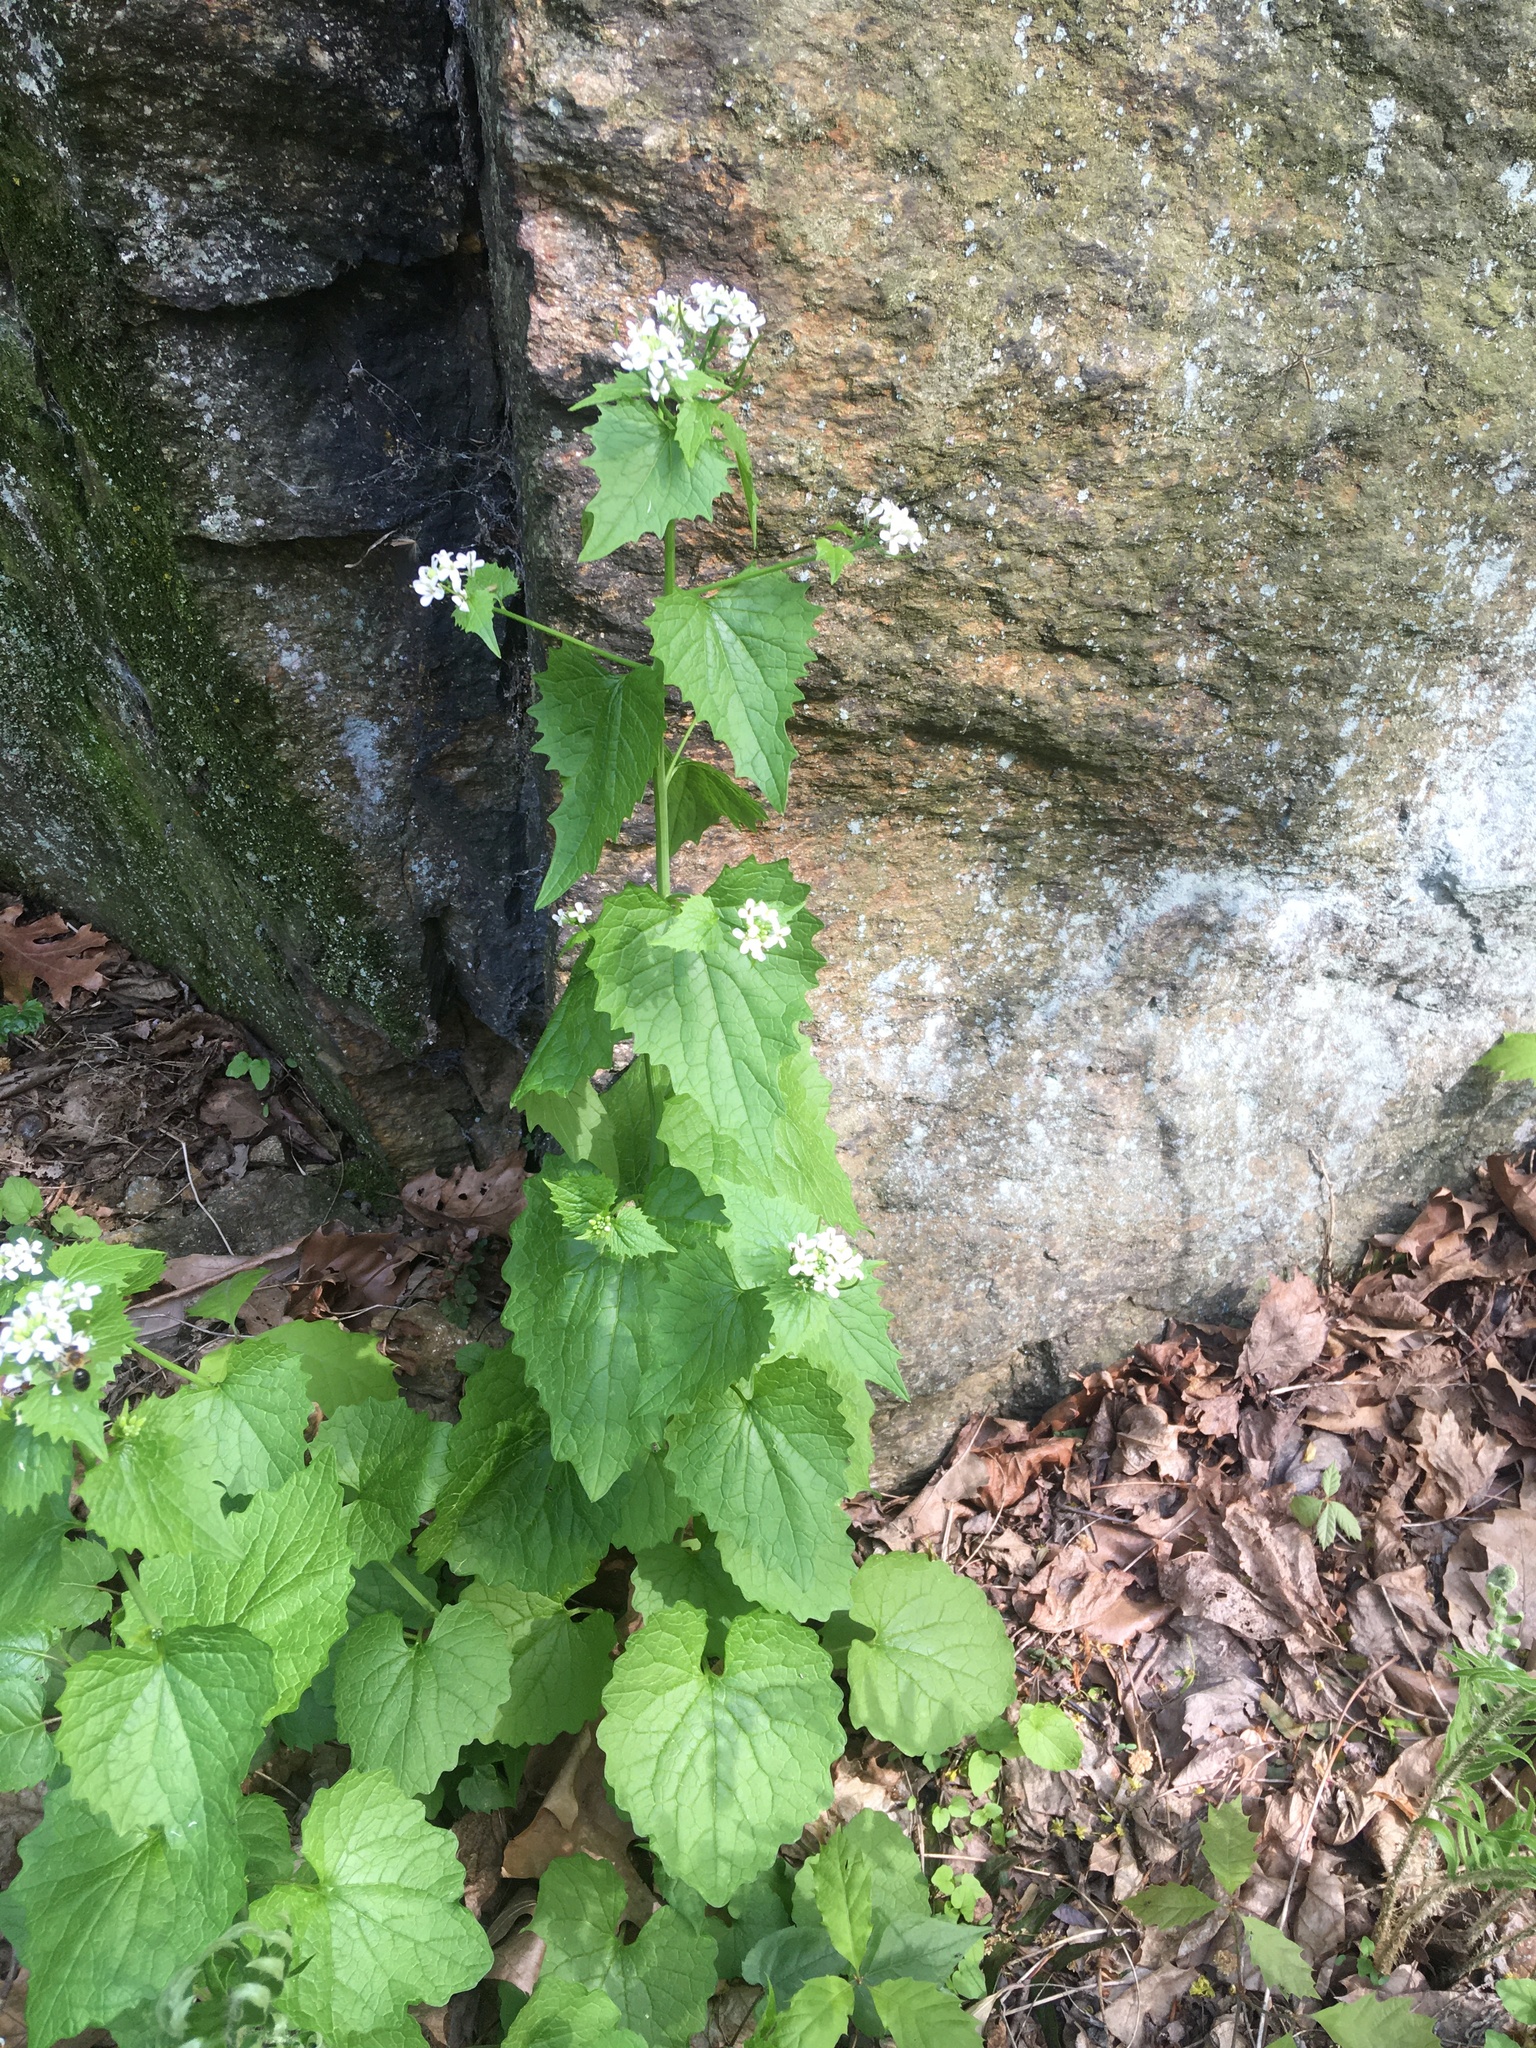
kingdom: Plantae
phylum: Tracheophyta
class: Magnoliopsida
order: Brassicales
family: Brassicaceae
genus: Alliaria
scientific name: Alliaria petiolata
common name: Garlic mustard
